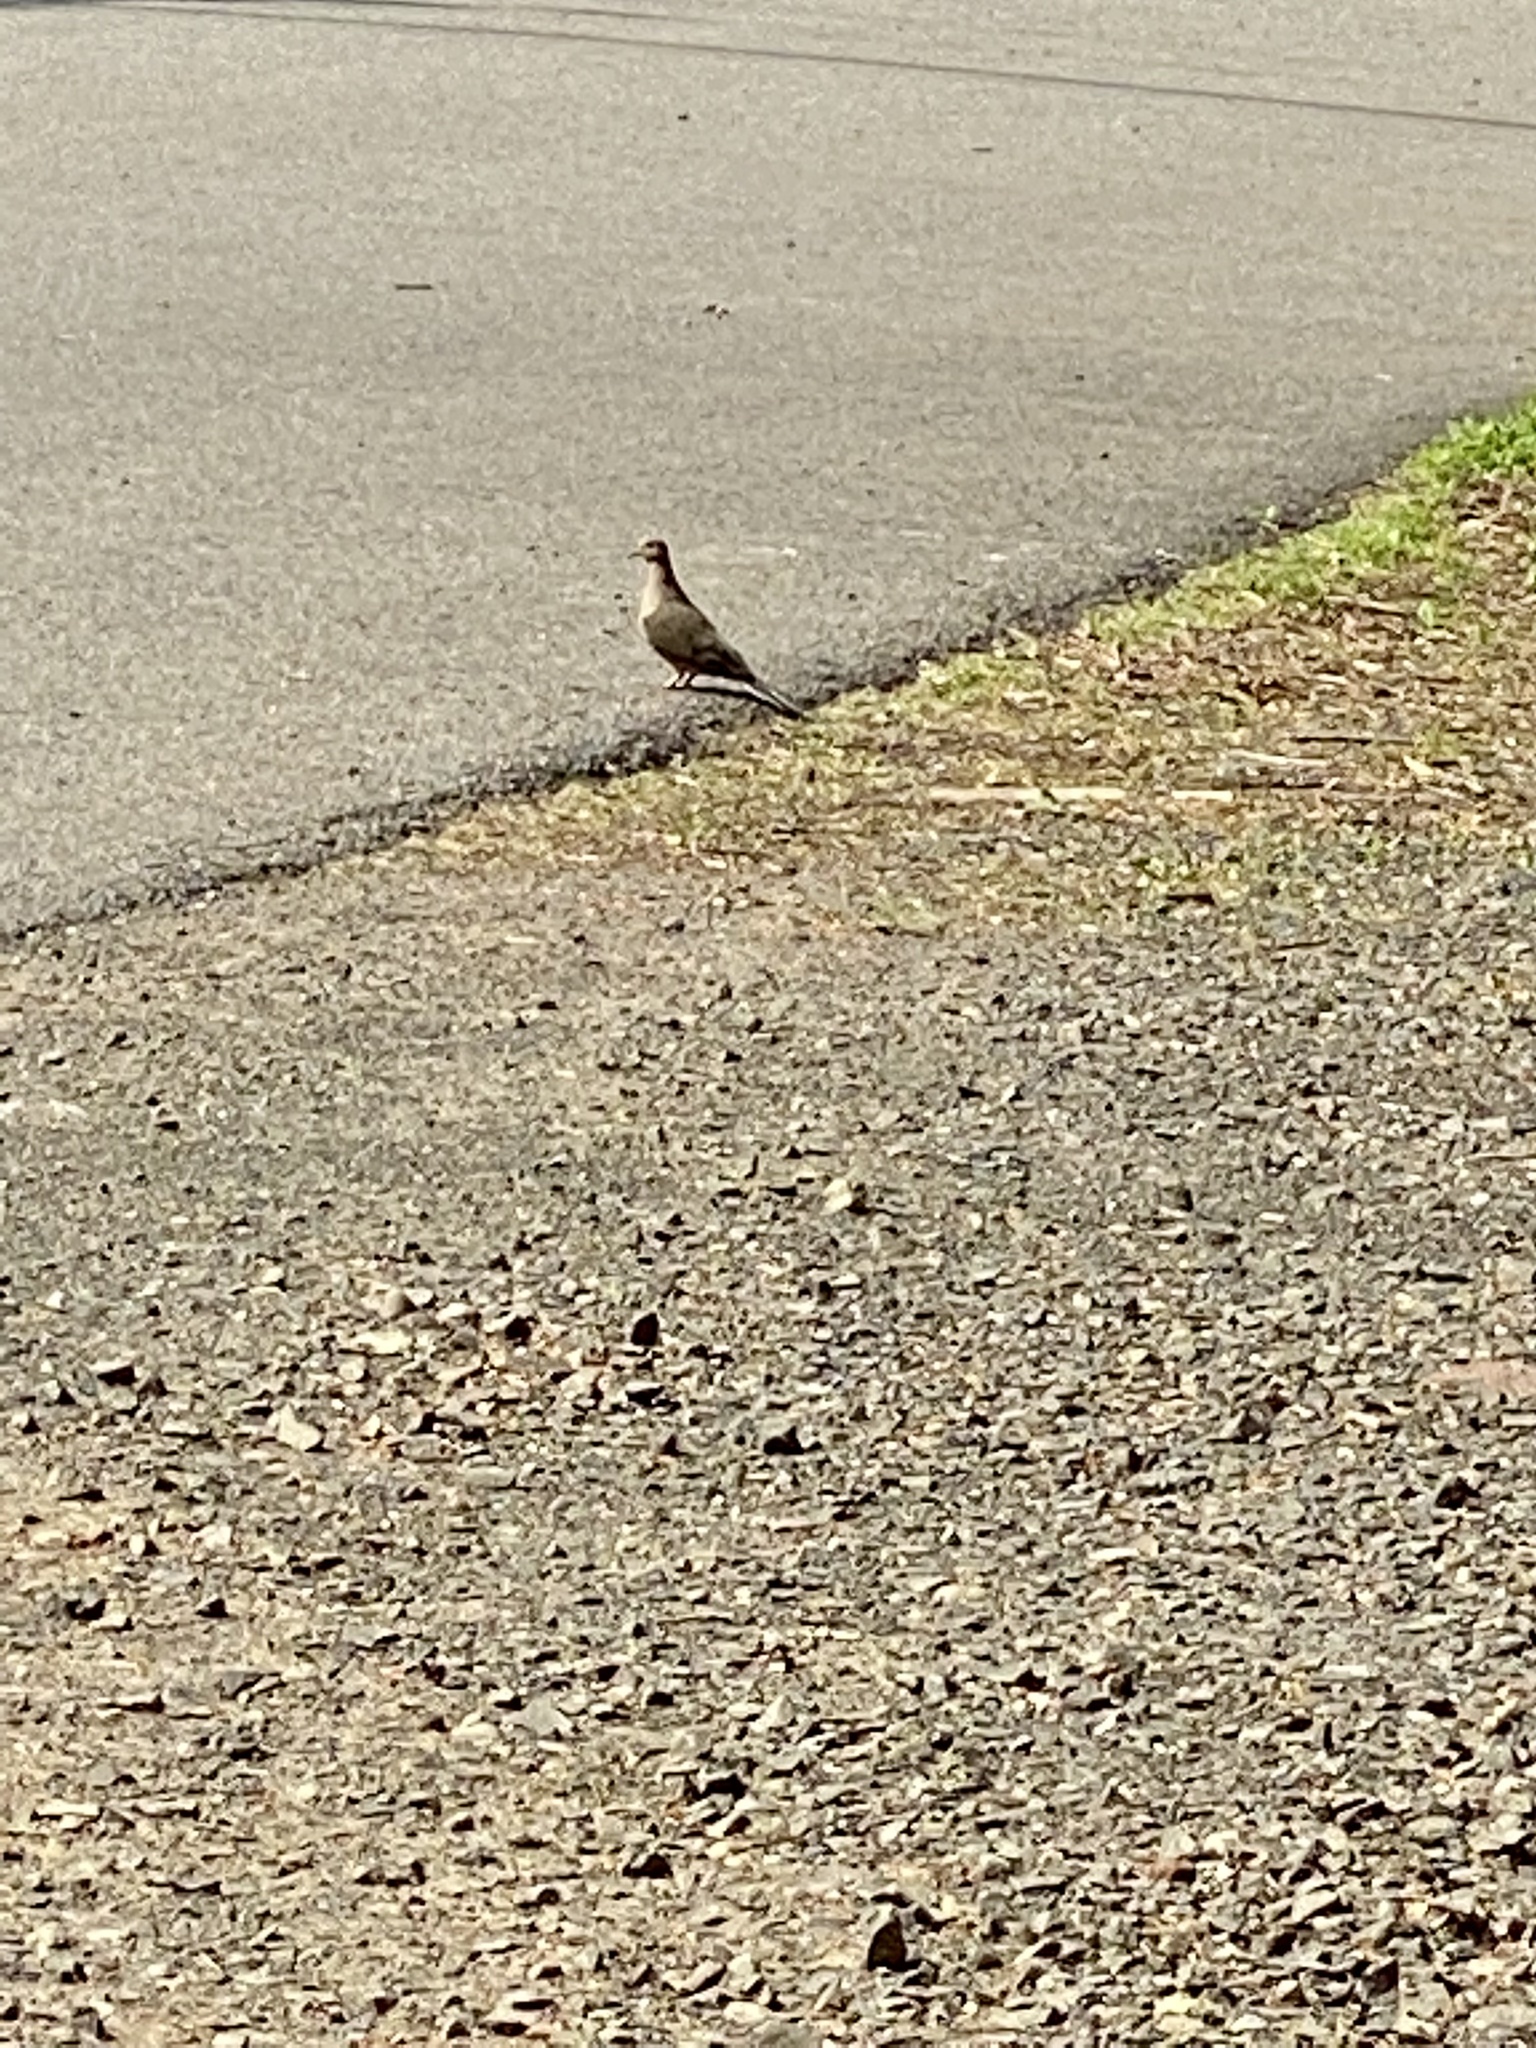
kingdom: Animalia
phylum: Chordata
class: Aves
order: Columbiformes
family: Columbidae
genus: Zenaida
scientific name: Zenaida macroura
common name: Mourning dove
